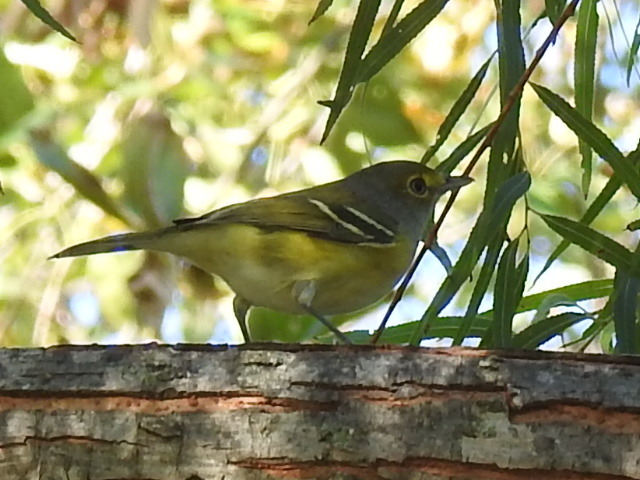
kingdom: Animalia
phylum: Chordata
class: Aves
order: Passeriformes
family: Vireonidae
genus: Vireo
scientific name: Vireo griseus
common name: White-eyed vireo
